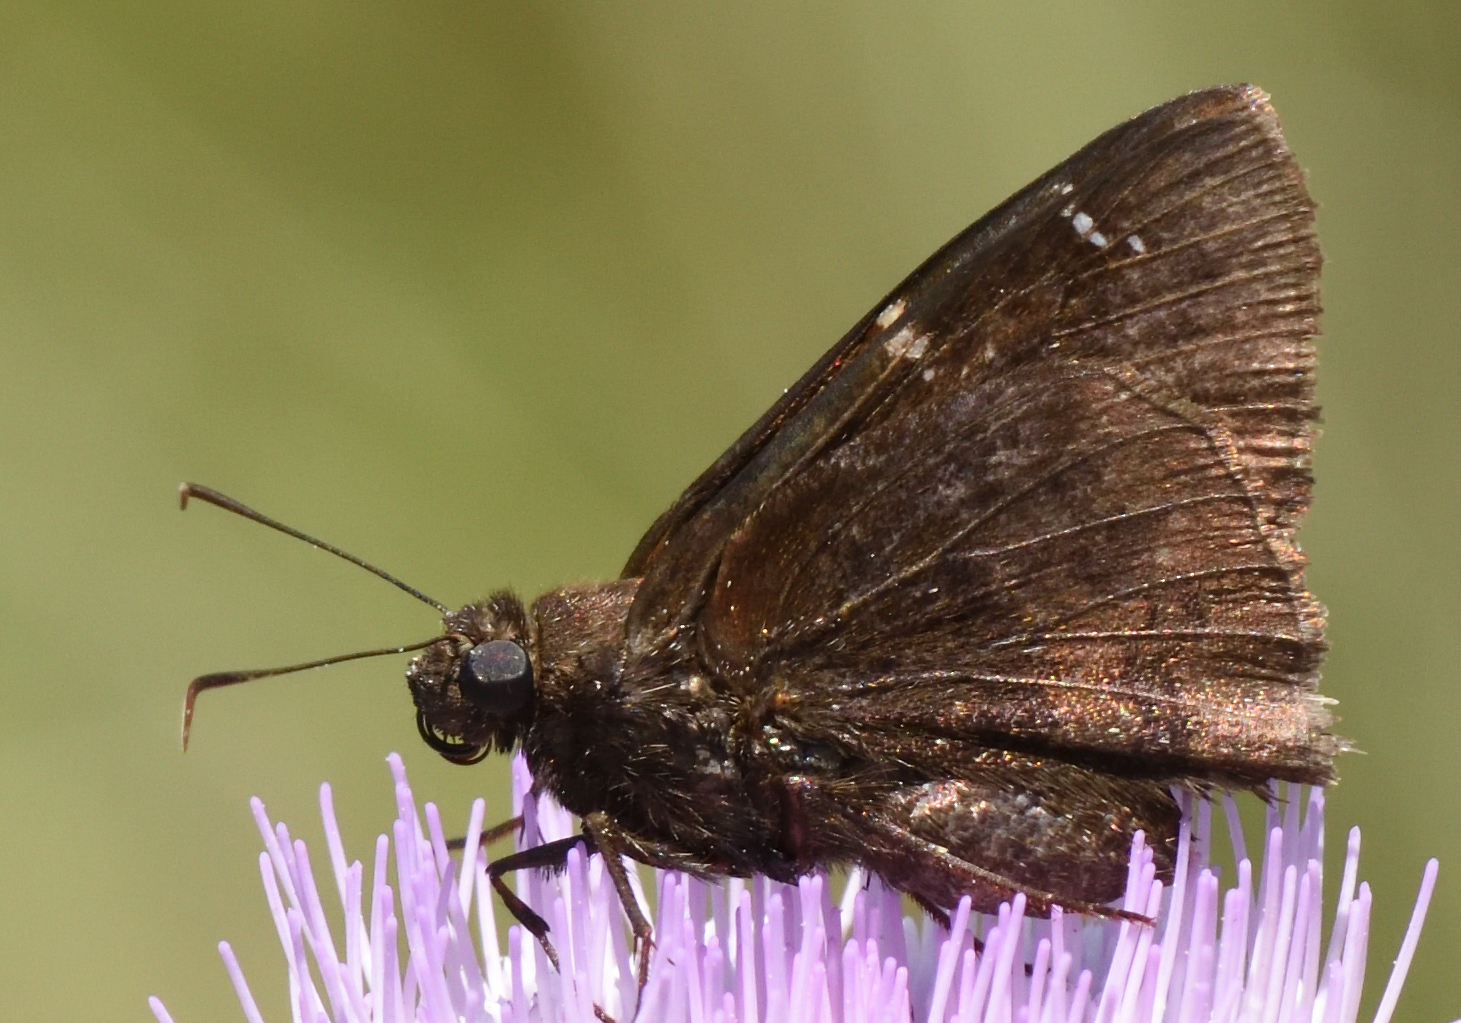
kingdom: Animalia
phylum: Arthropoda
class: Insecta
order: Lepidoptera
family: Hesperiidae
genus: Thorybes
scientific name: Thorybes pylades
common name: Northern cloudywing
